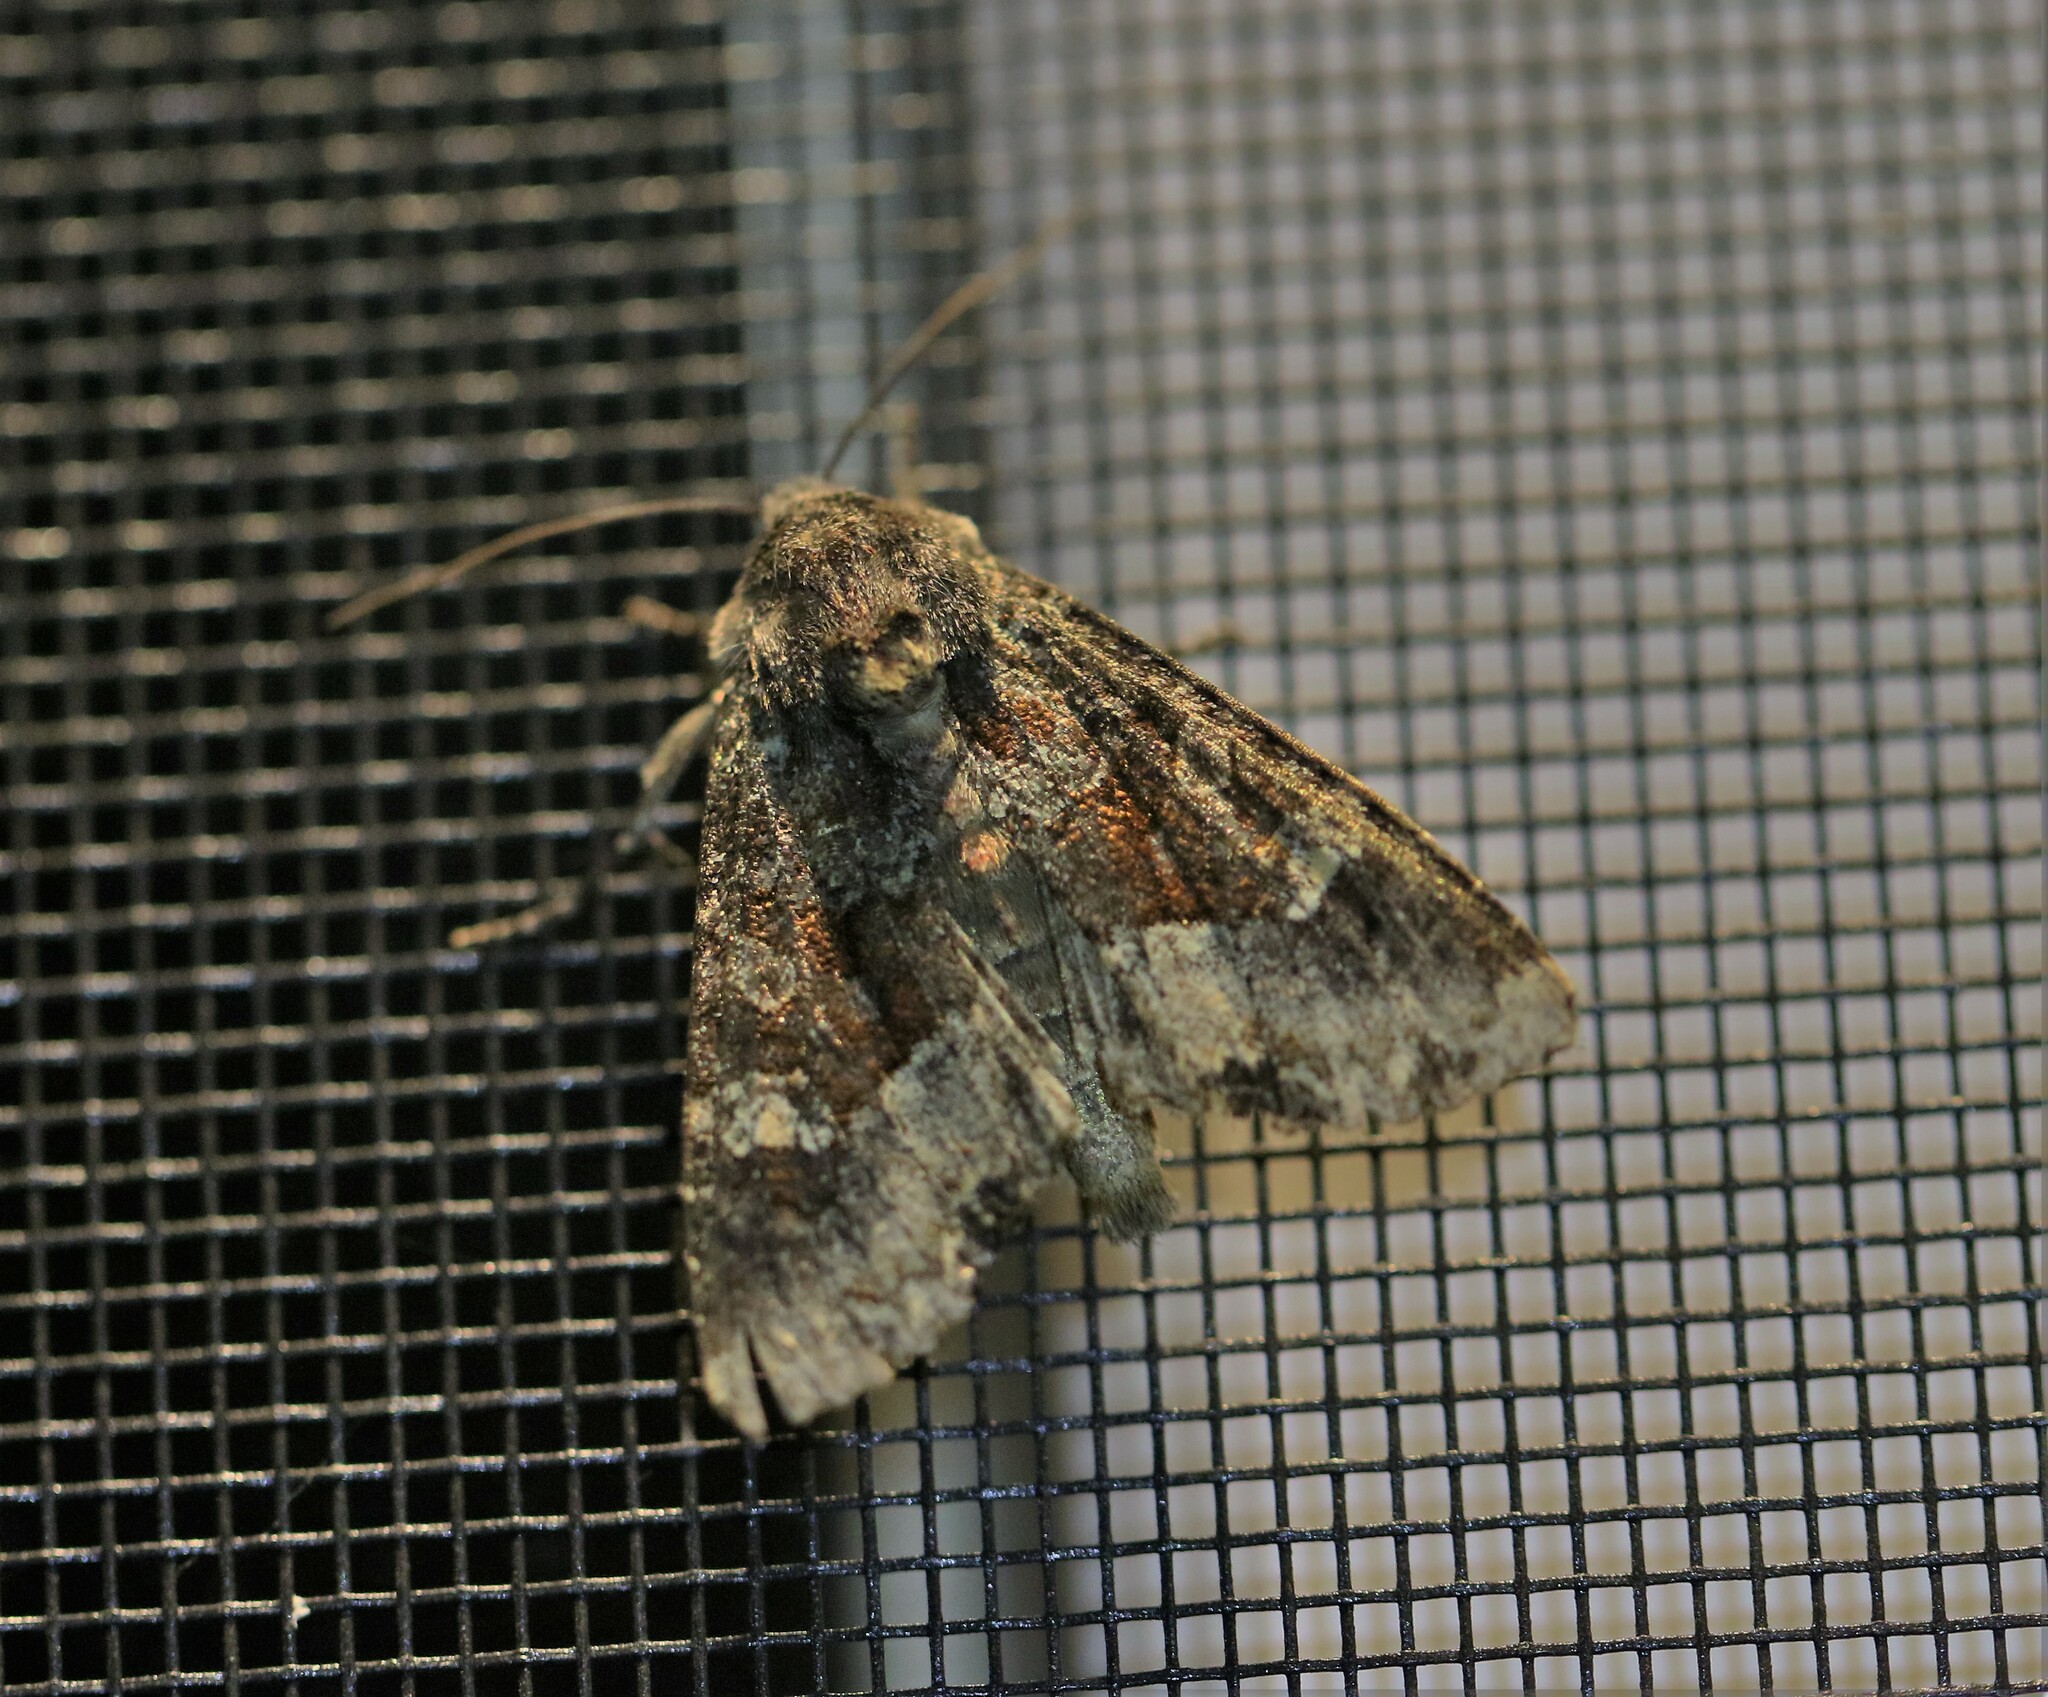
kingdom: Animalia
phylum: Arthropoda
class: Insecta
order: Lepidoptera
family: Noctuidae
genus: Apamea
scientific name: Apamea amputatrix
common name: Yellow-headed cutworm moth
